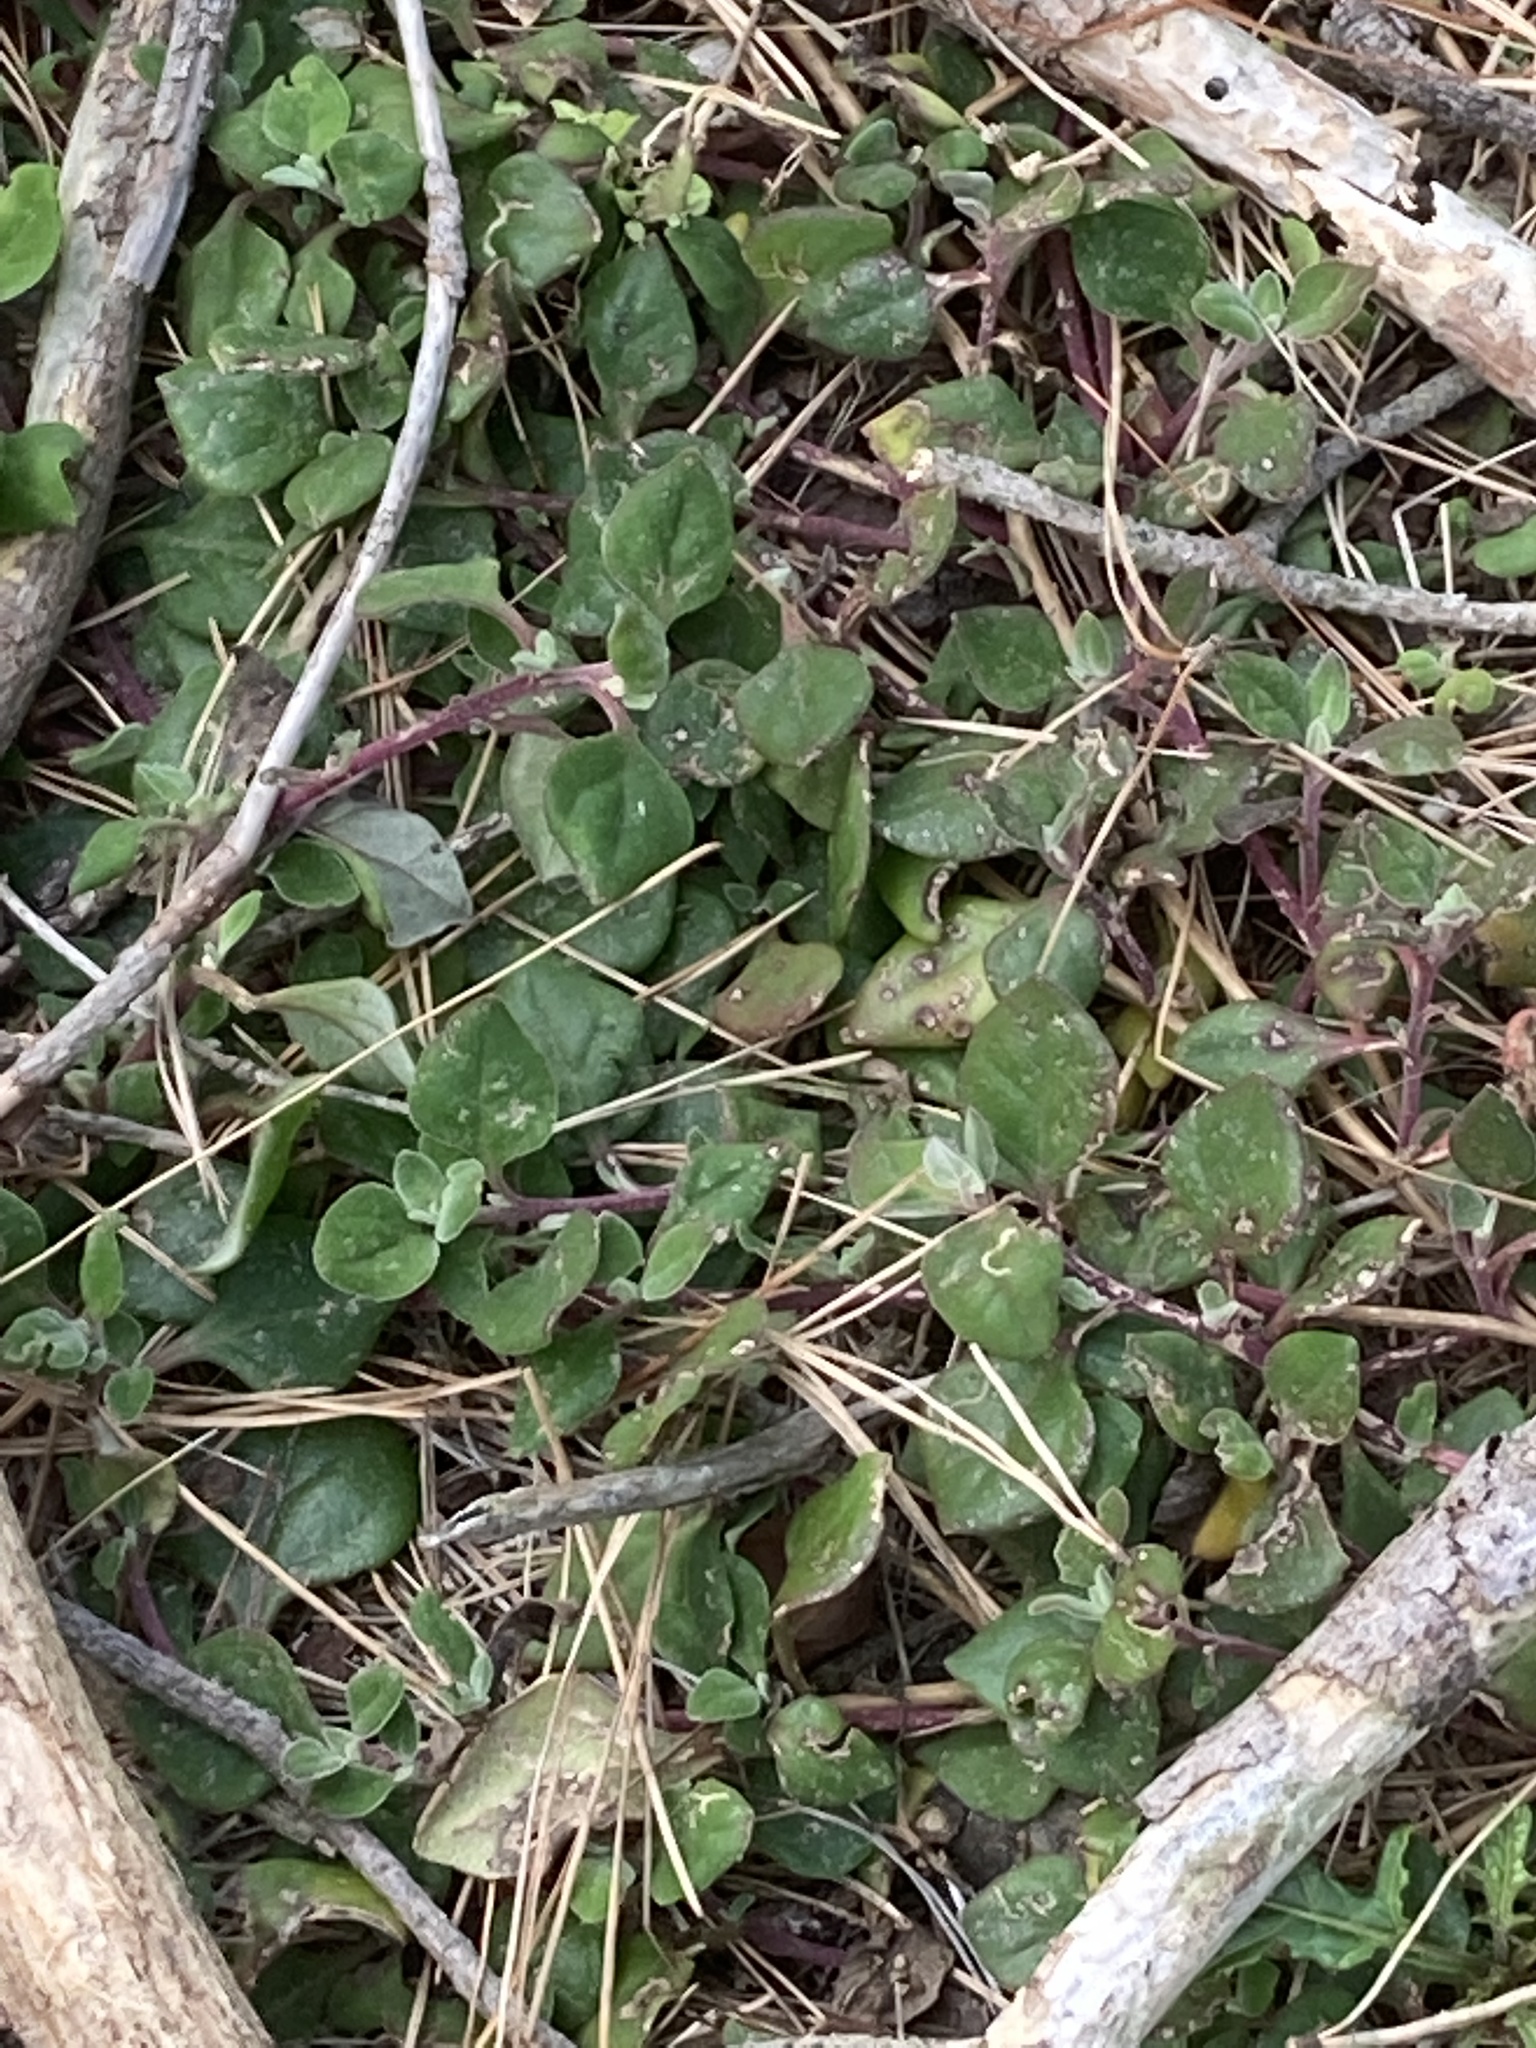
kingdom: Plantae
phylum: Tracheophyta
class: Magnoliopsida
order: Caryophyllales
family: Aizoaceae
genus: Tetragonia
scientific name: Tetragonia implexicoma
